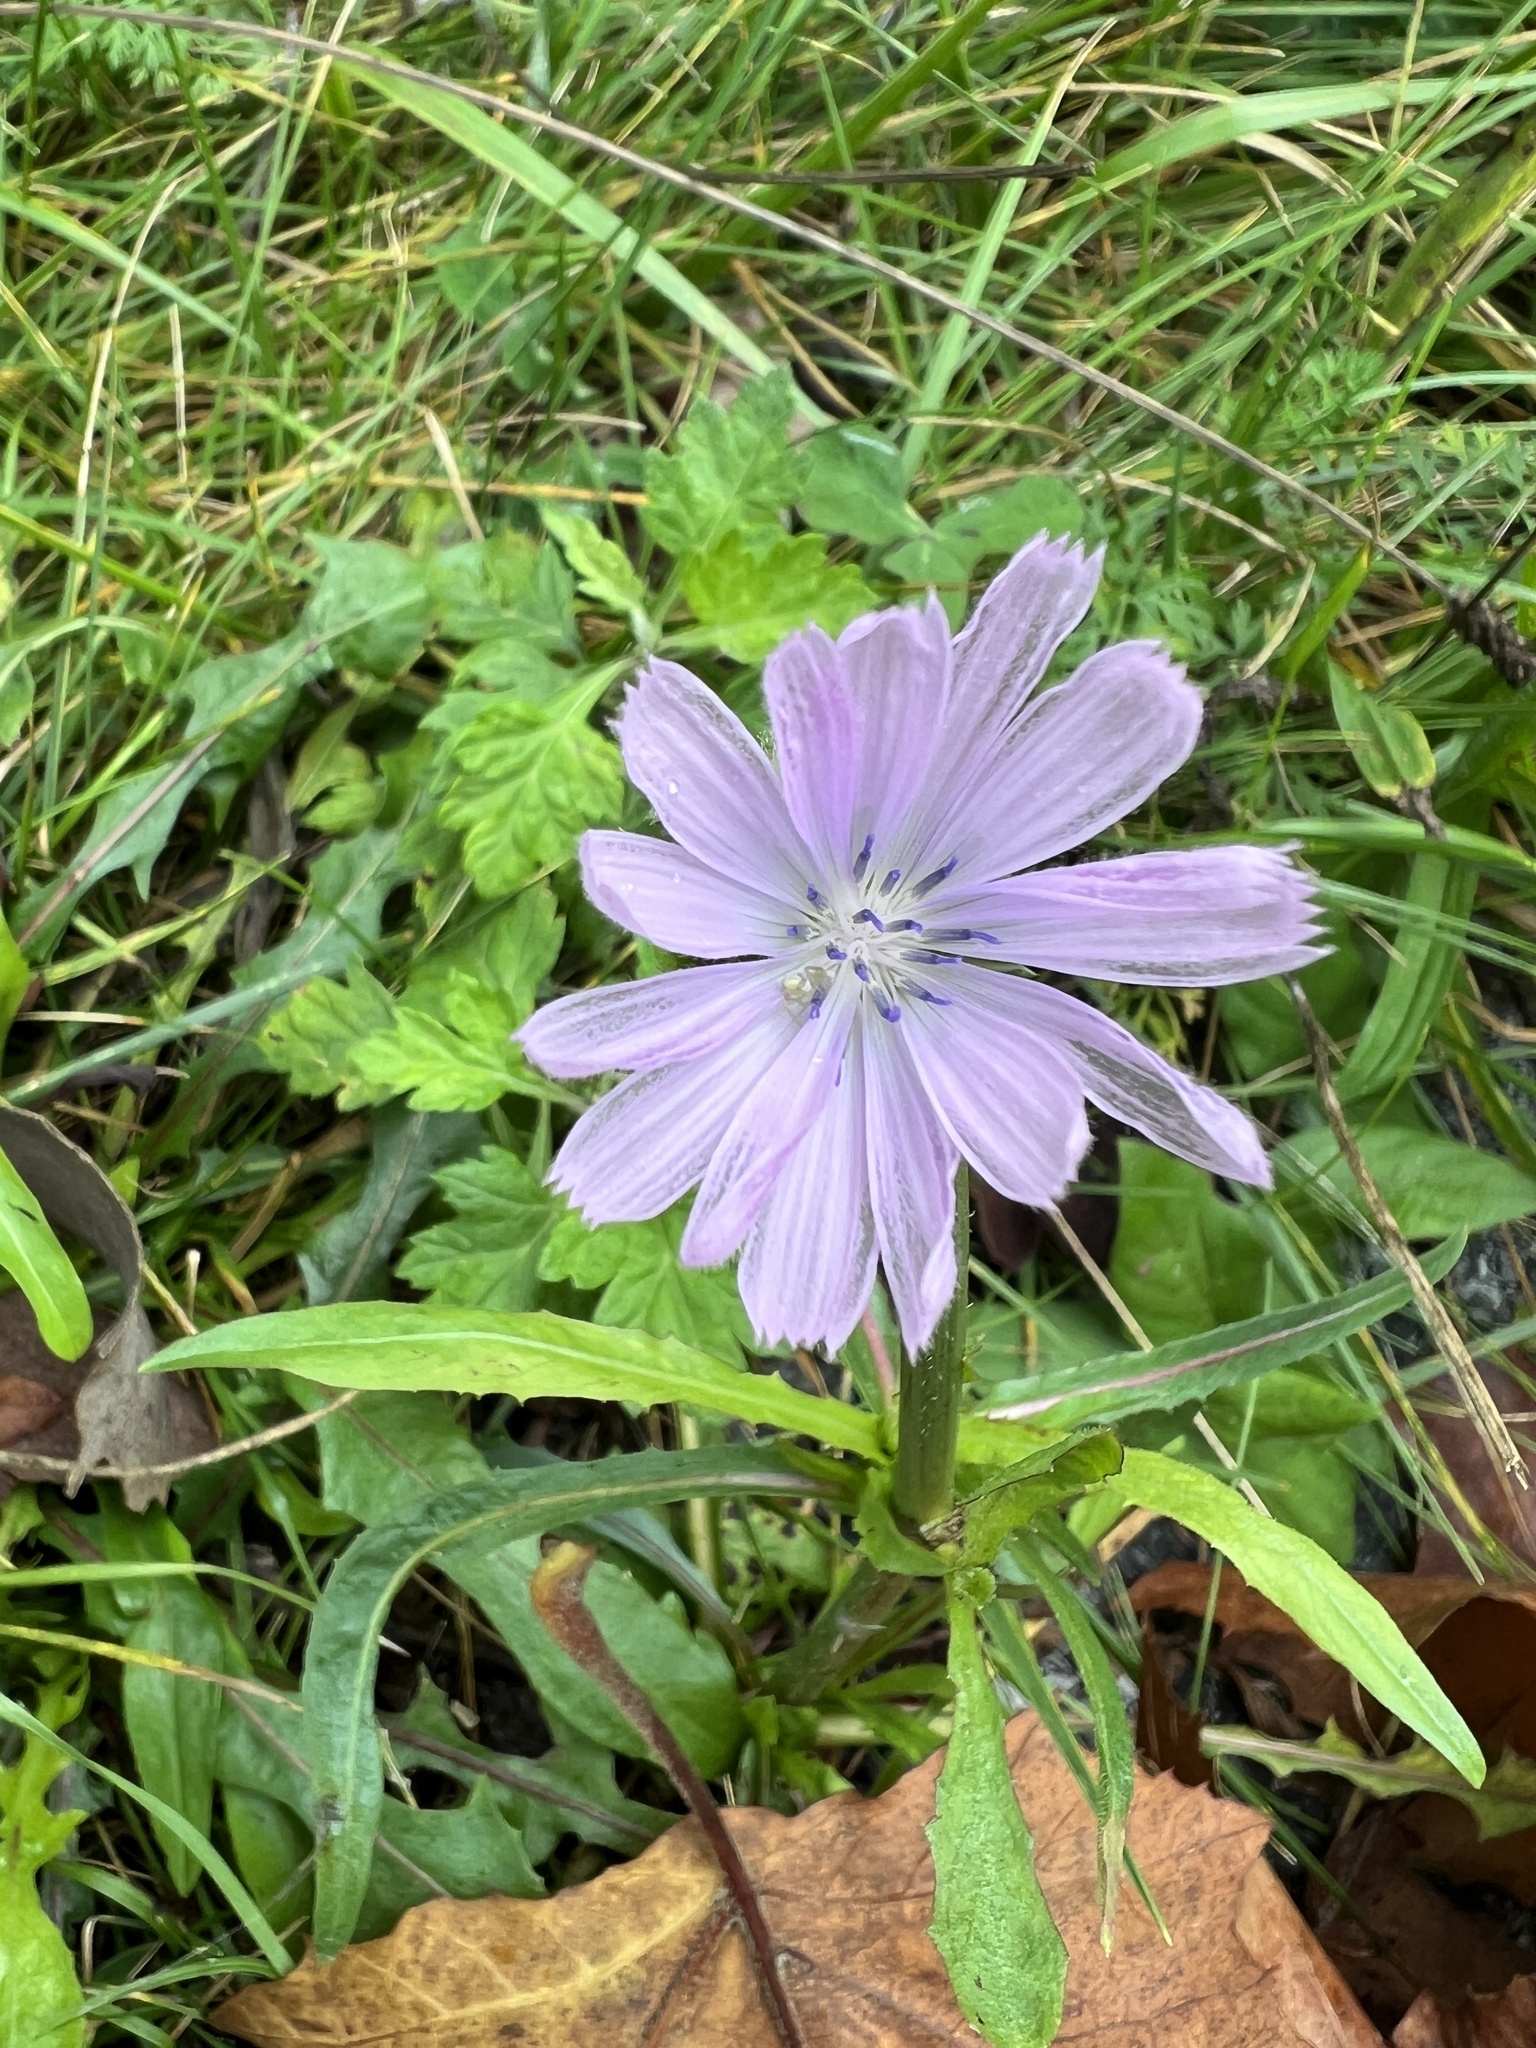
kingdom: Plantae
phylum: Tracheophyta
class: Magnoliopsida
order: Asterales
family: Asteraceae
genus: Cichorium
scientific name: Cichorium intybus
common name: Chicory
